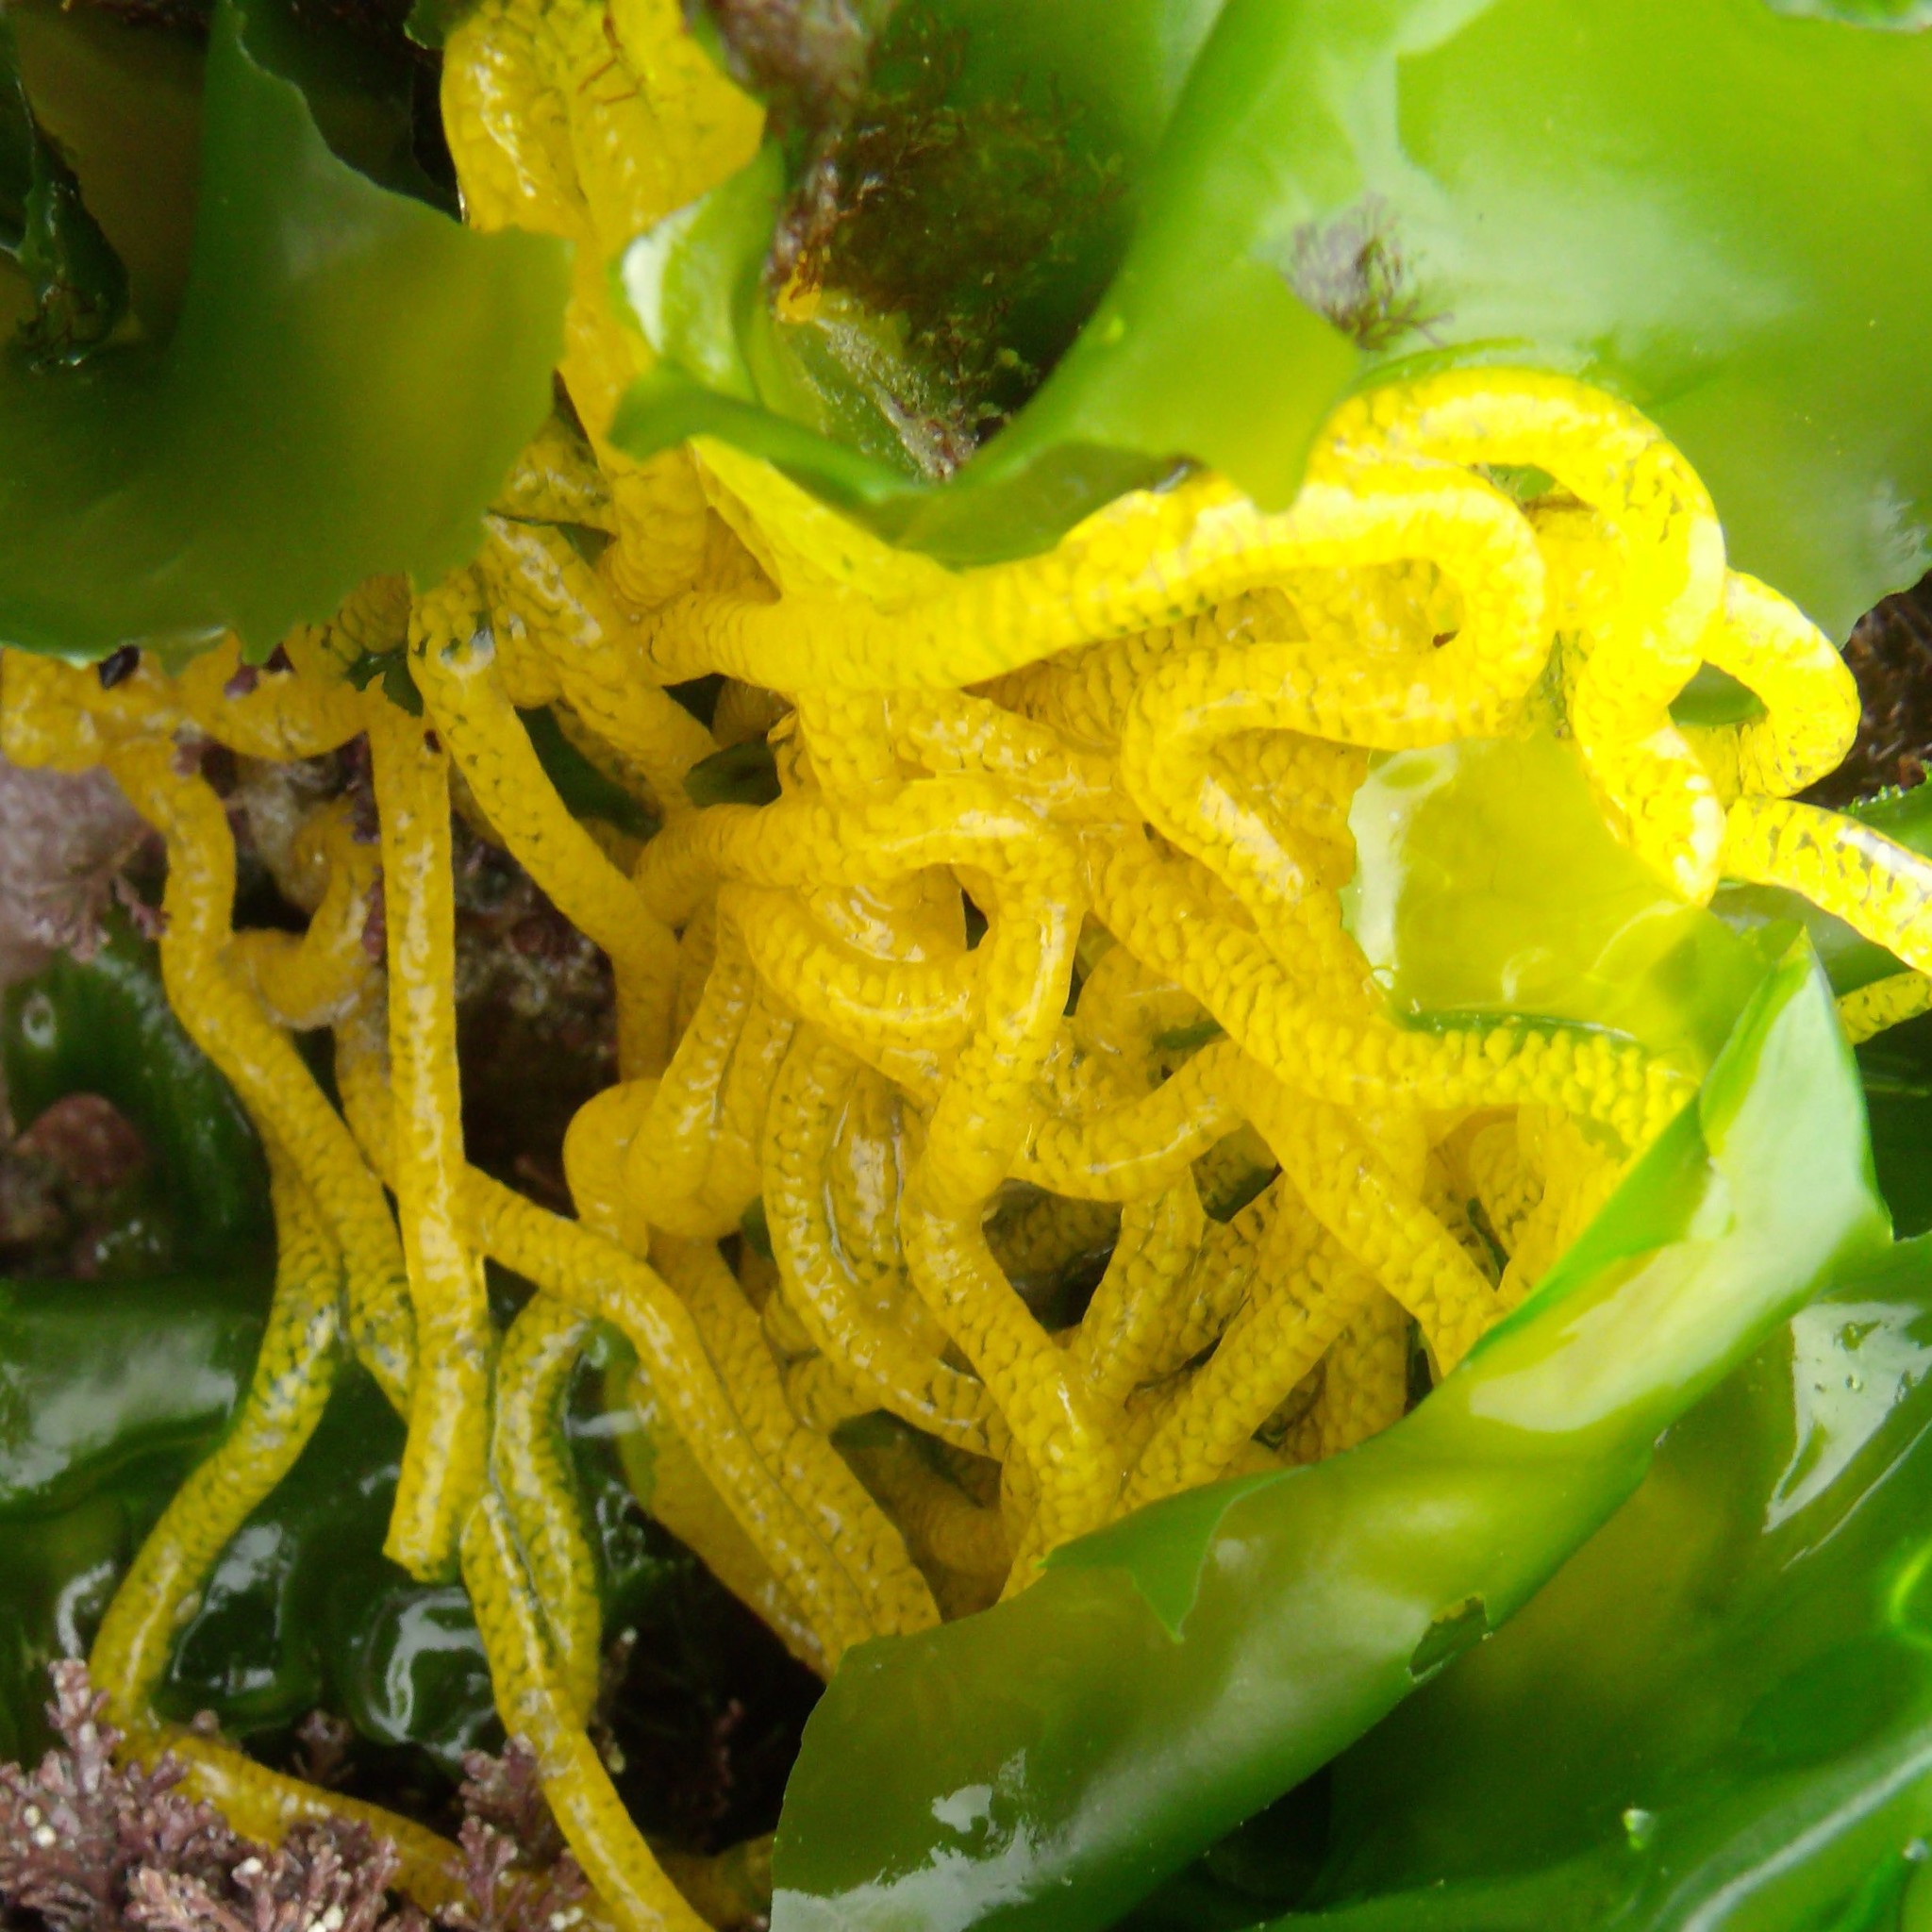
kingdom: Animalia
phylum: Mollusca
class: Gastropoda
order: Aplysiida
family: Aplysiidae
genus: Aplysia
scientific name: Aplysia juliana
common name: Walking sea hare
